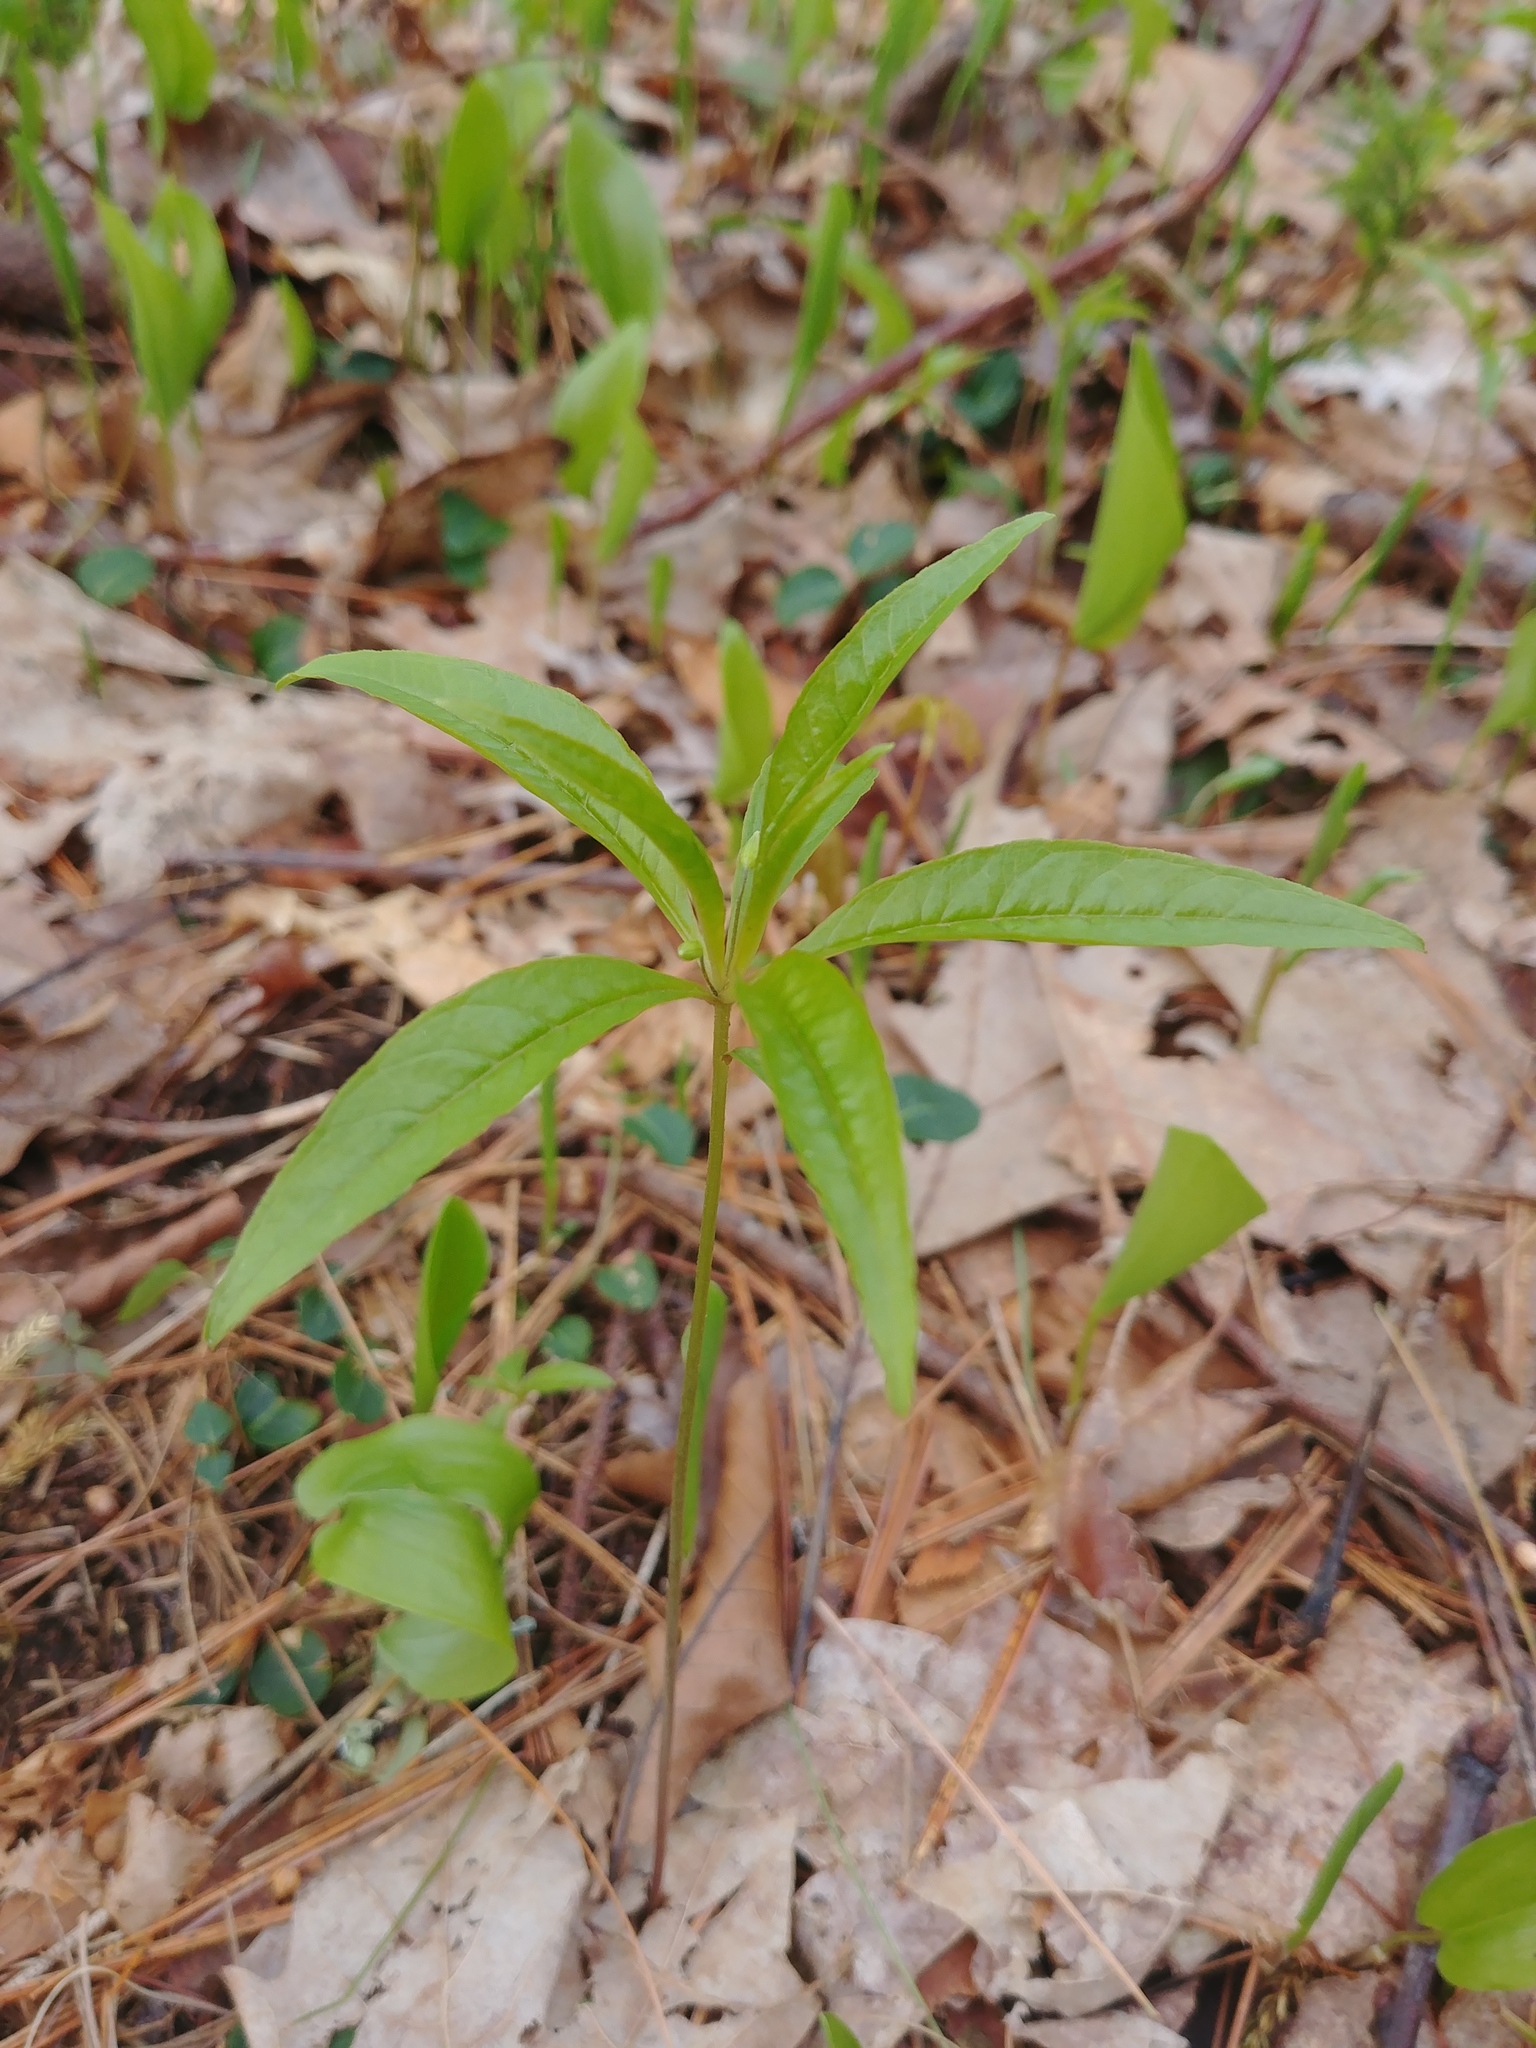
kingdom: Plantae
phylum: Tracheophyta
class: Magnoliopsida
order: Ericales
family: Primulaceae
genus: Lysimachia
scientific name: Lysimachia borealis
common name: American starflower
